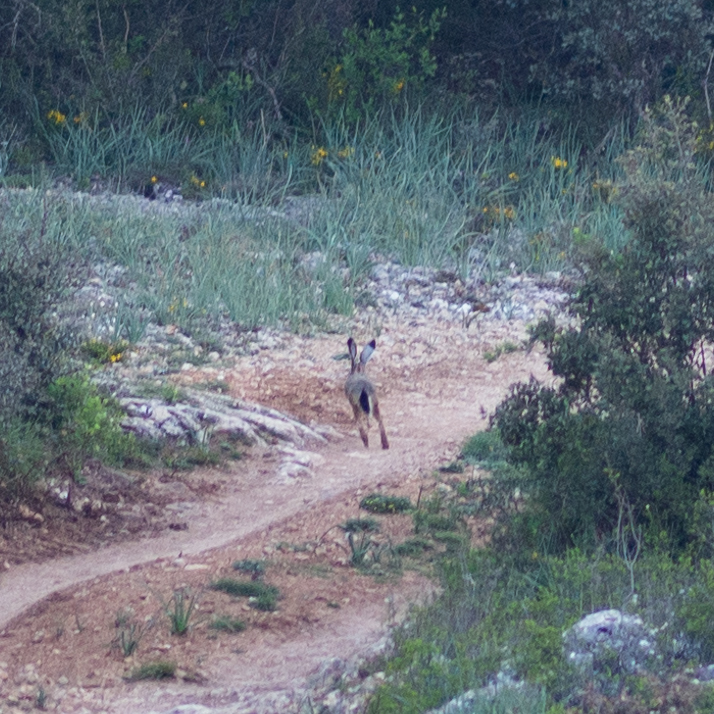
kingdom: Animalia
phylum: Chordata
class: Mammalia
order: Lagomorpha
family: Leporidae
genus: Lepus
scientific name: Lepus granatensis
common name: Granada hare
